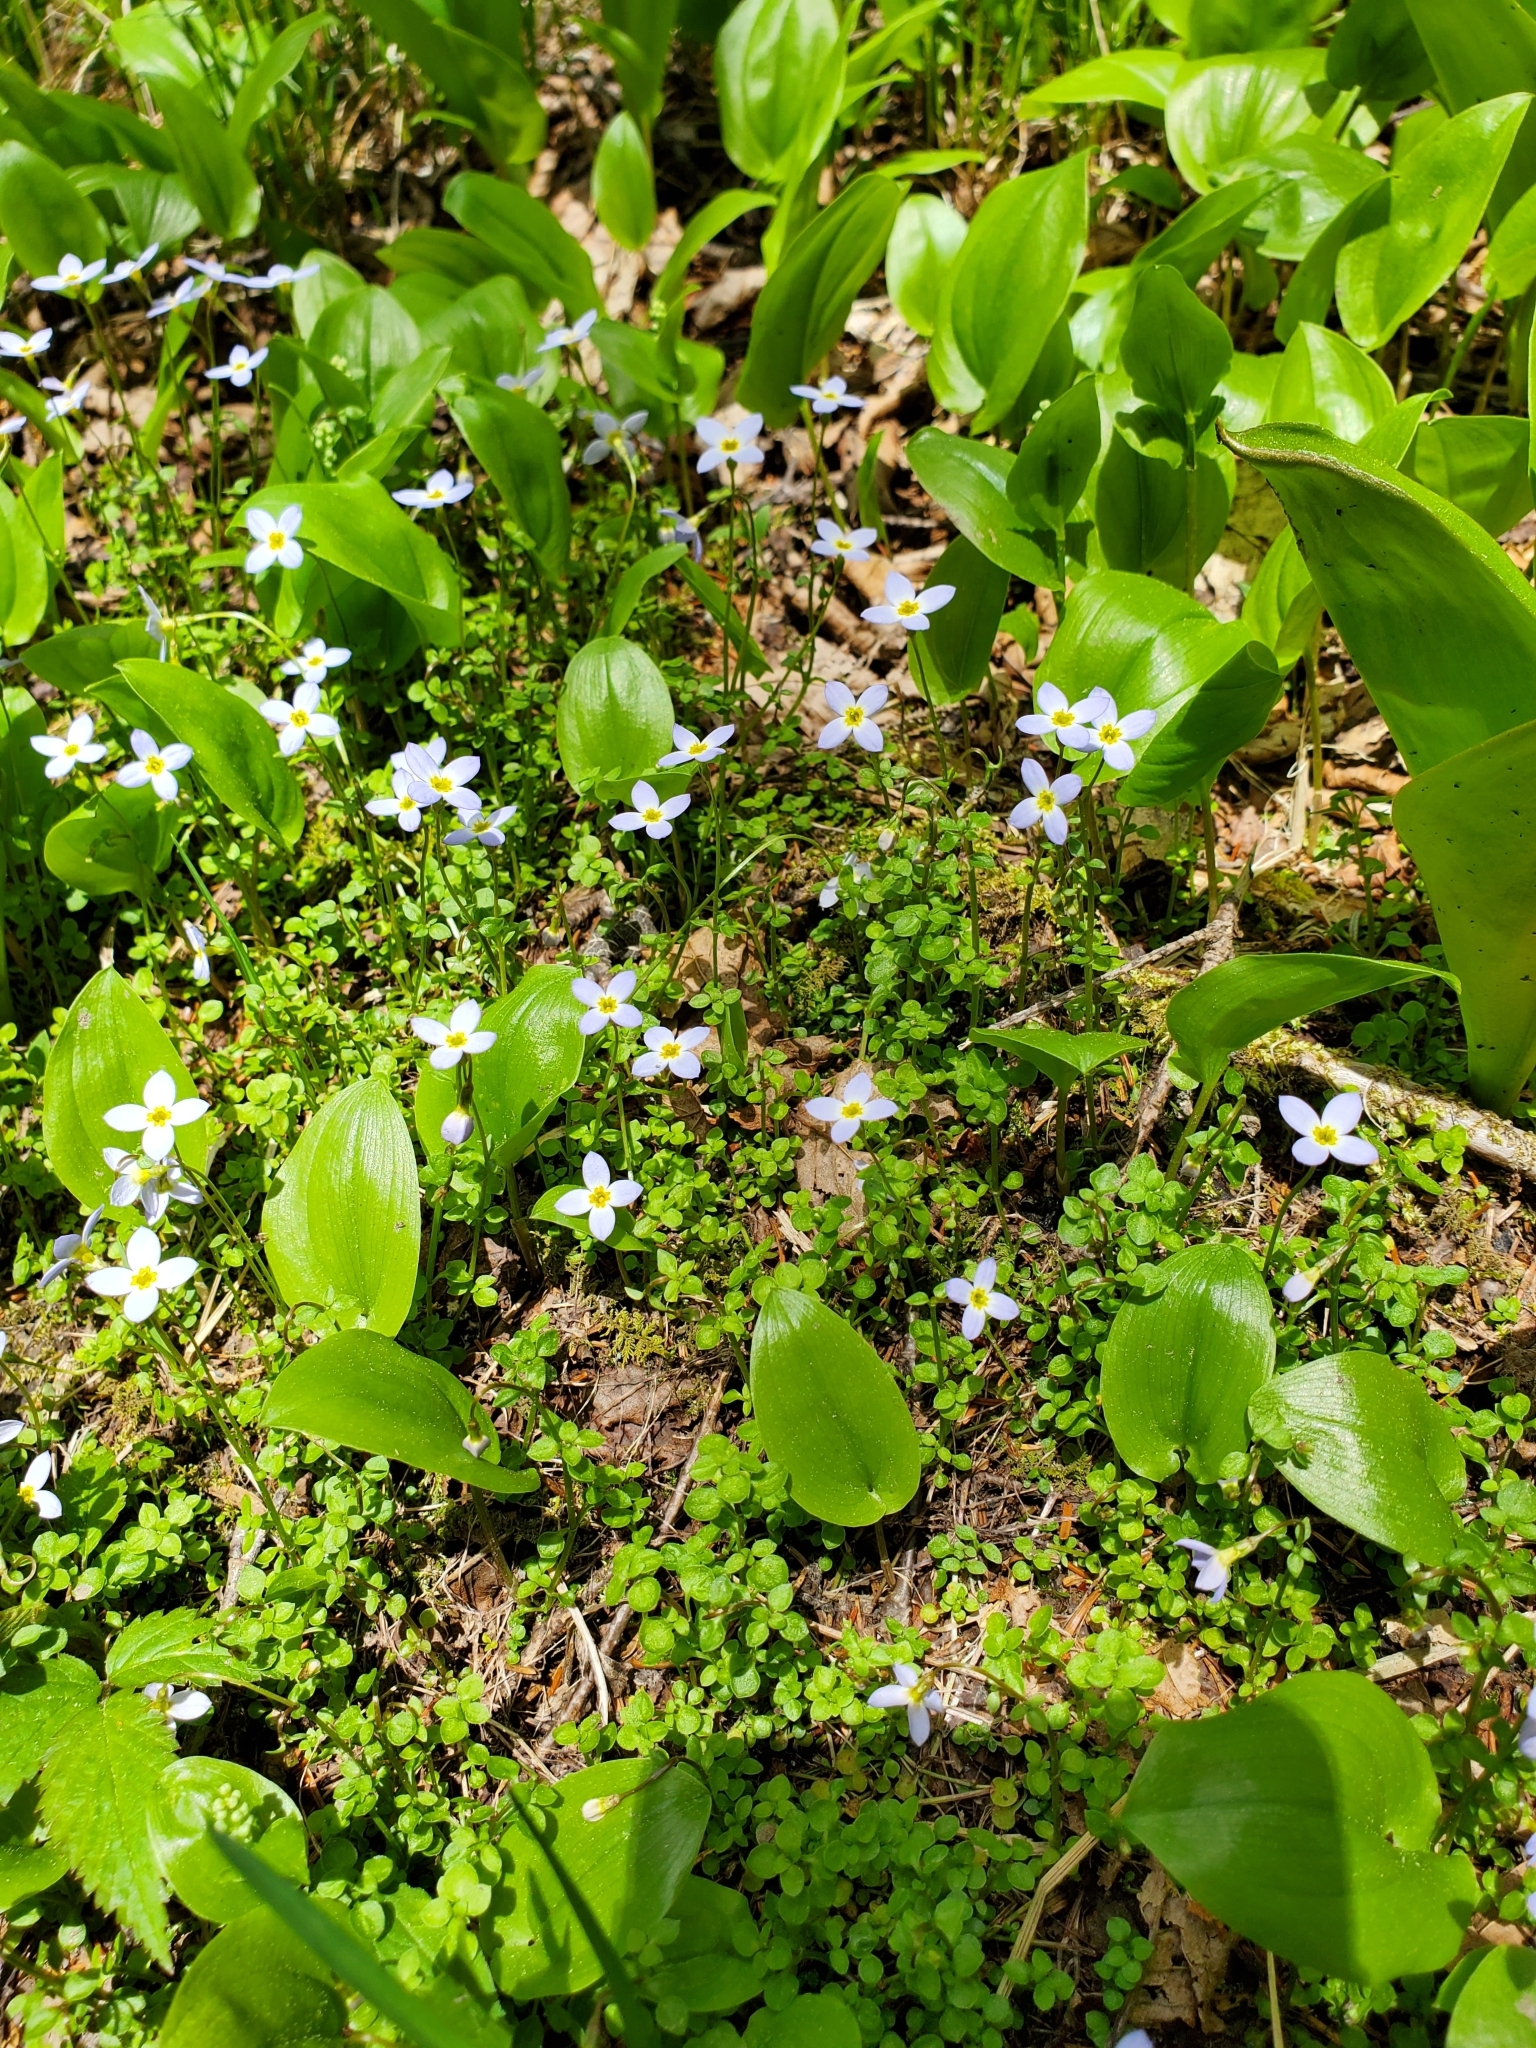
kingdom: Plantae
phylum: Tracheophyta
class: Magnoliopsida
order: Gentianales
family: Rubiaceae
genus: Houstonia
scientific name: Houstonia serpyllifolia
